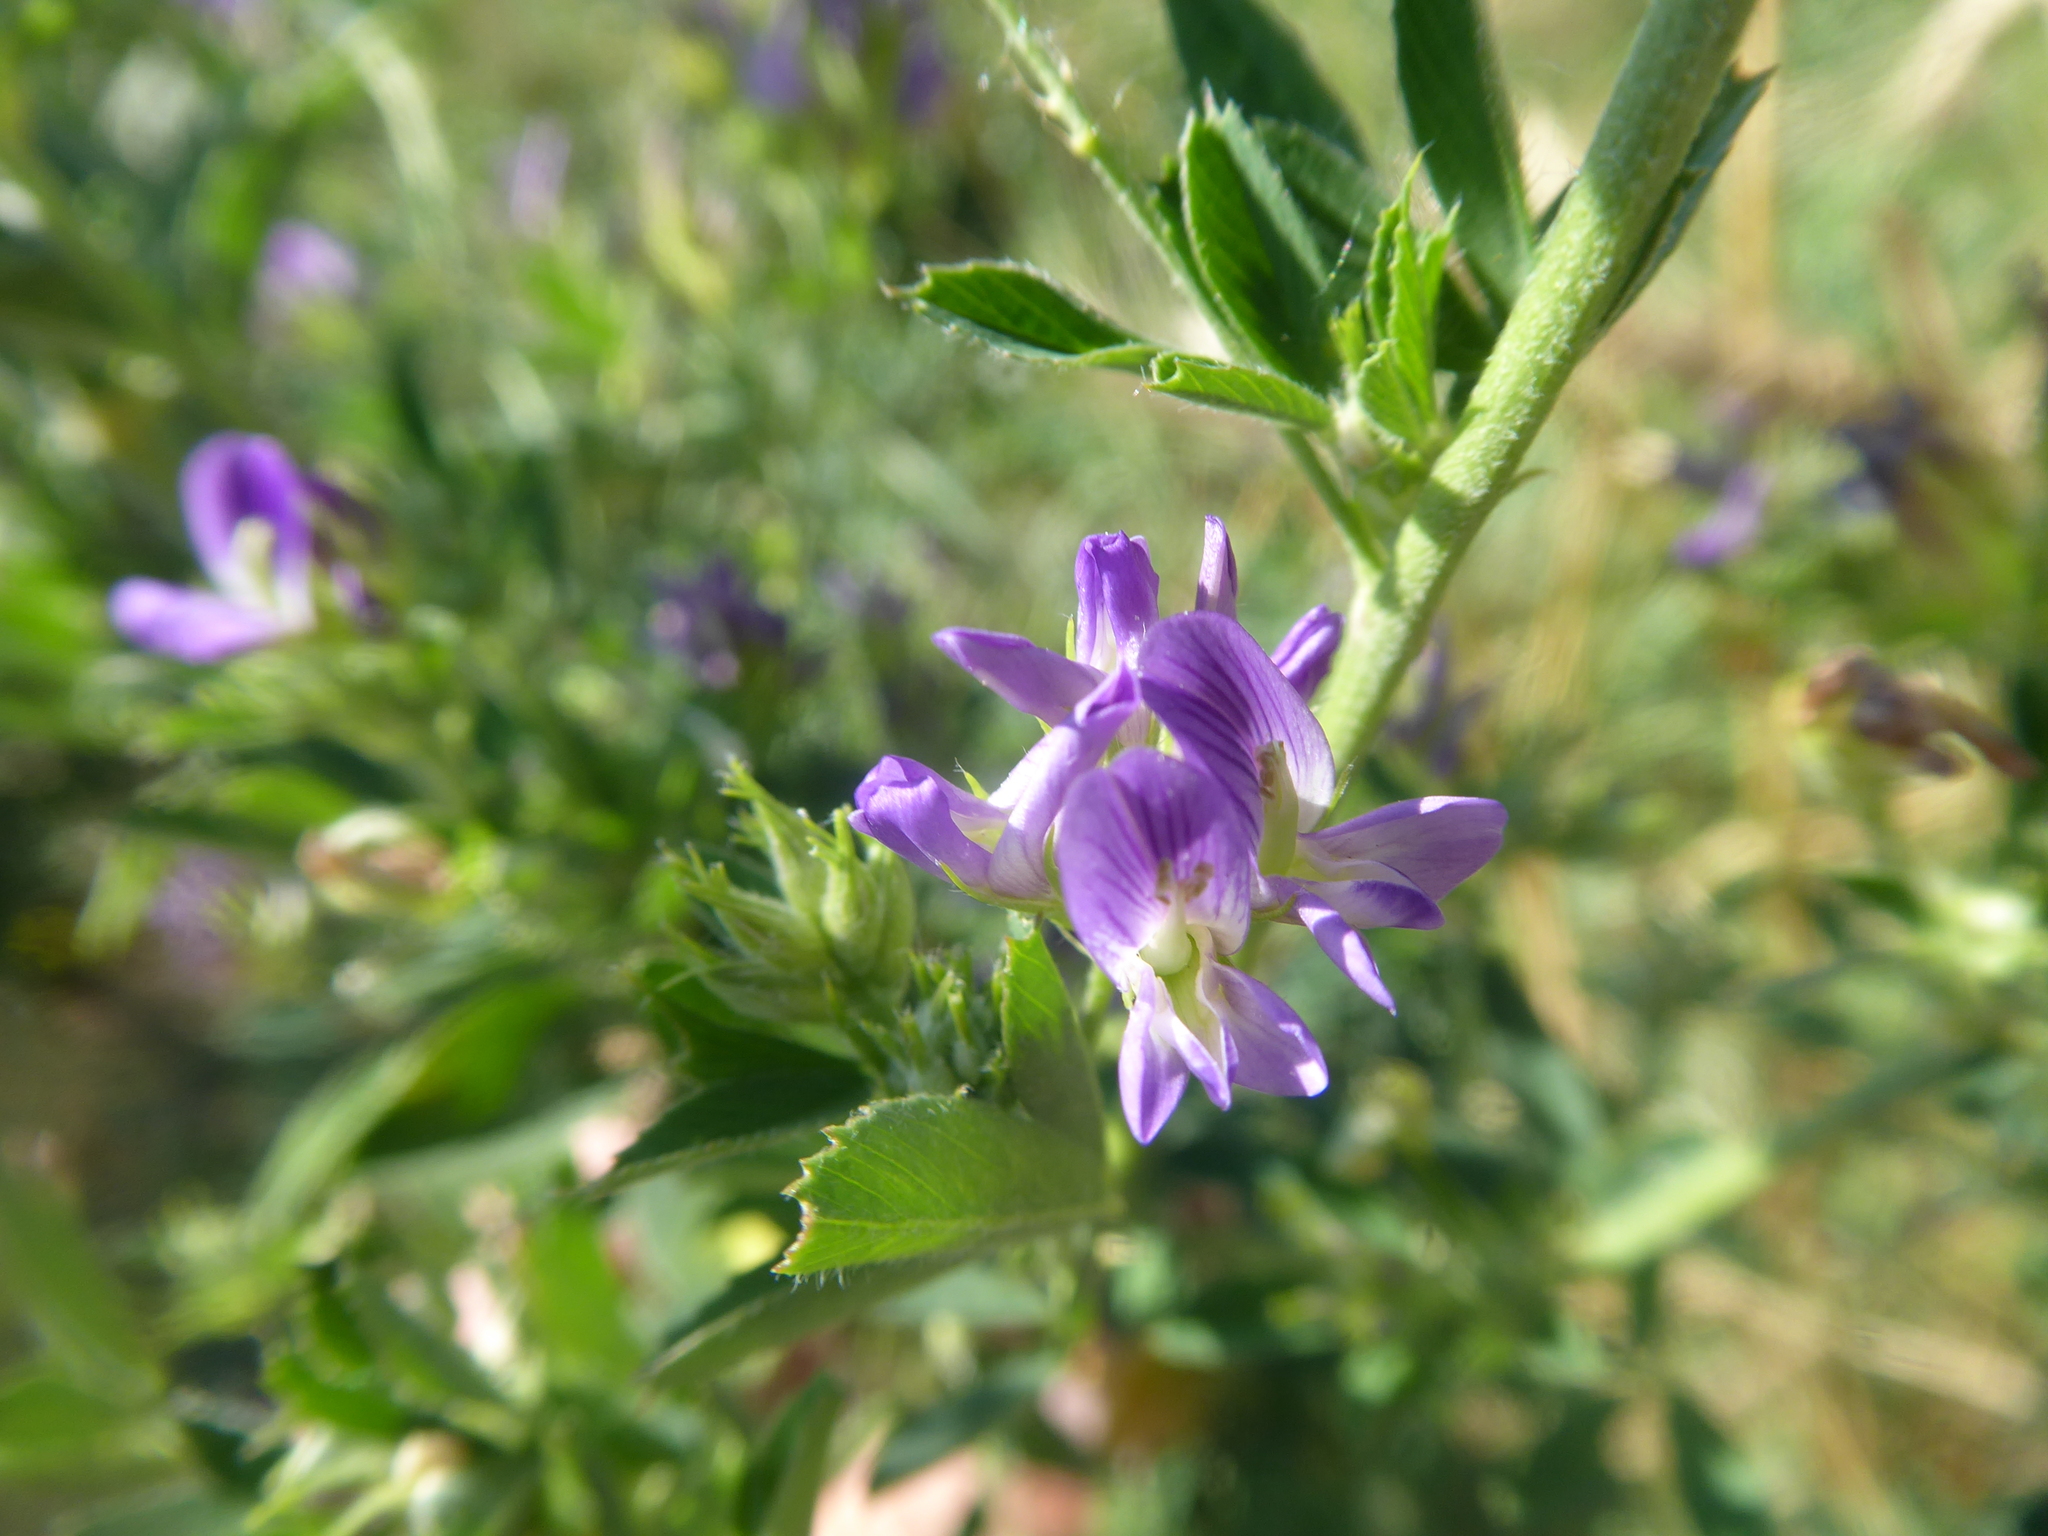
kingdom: Plantae
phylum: Tracheophyta
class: Magnoliopsida
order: Fabales
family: Fabaceae
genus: Medicago
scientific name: Medicago
